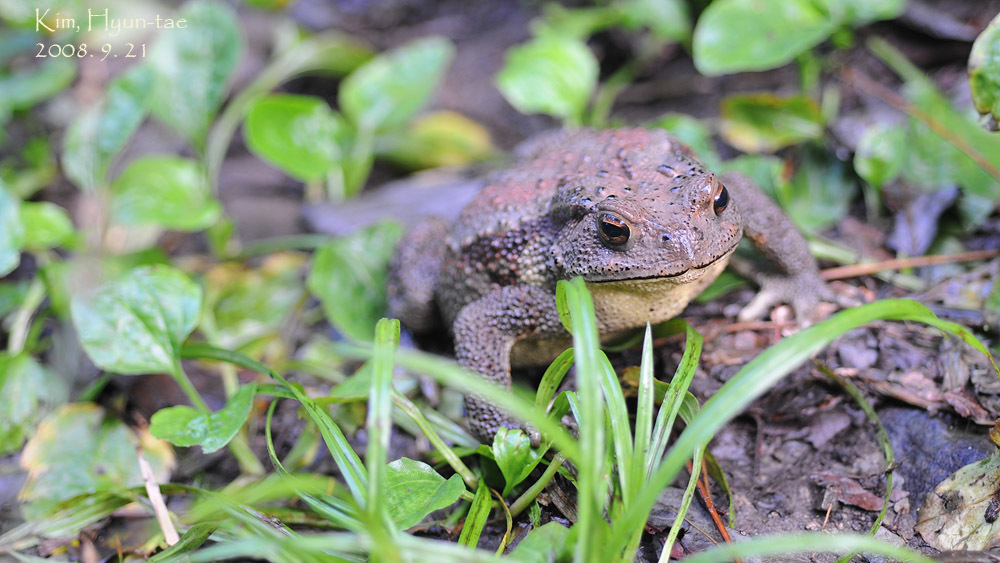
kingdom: Animalia
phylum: Chordata
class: Amphibia
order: Anura
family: Bufonidae
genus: Bufo
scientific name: Bufo gargarizans
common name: Asiatic toad
